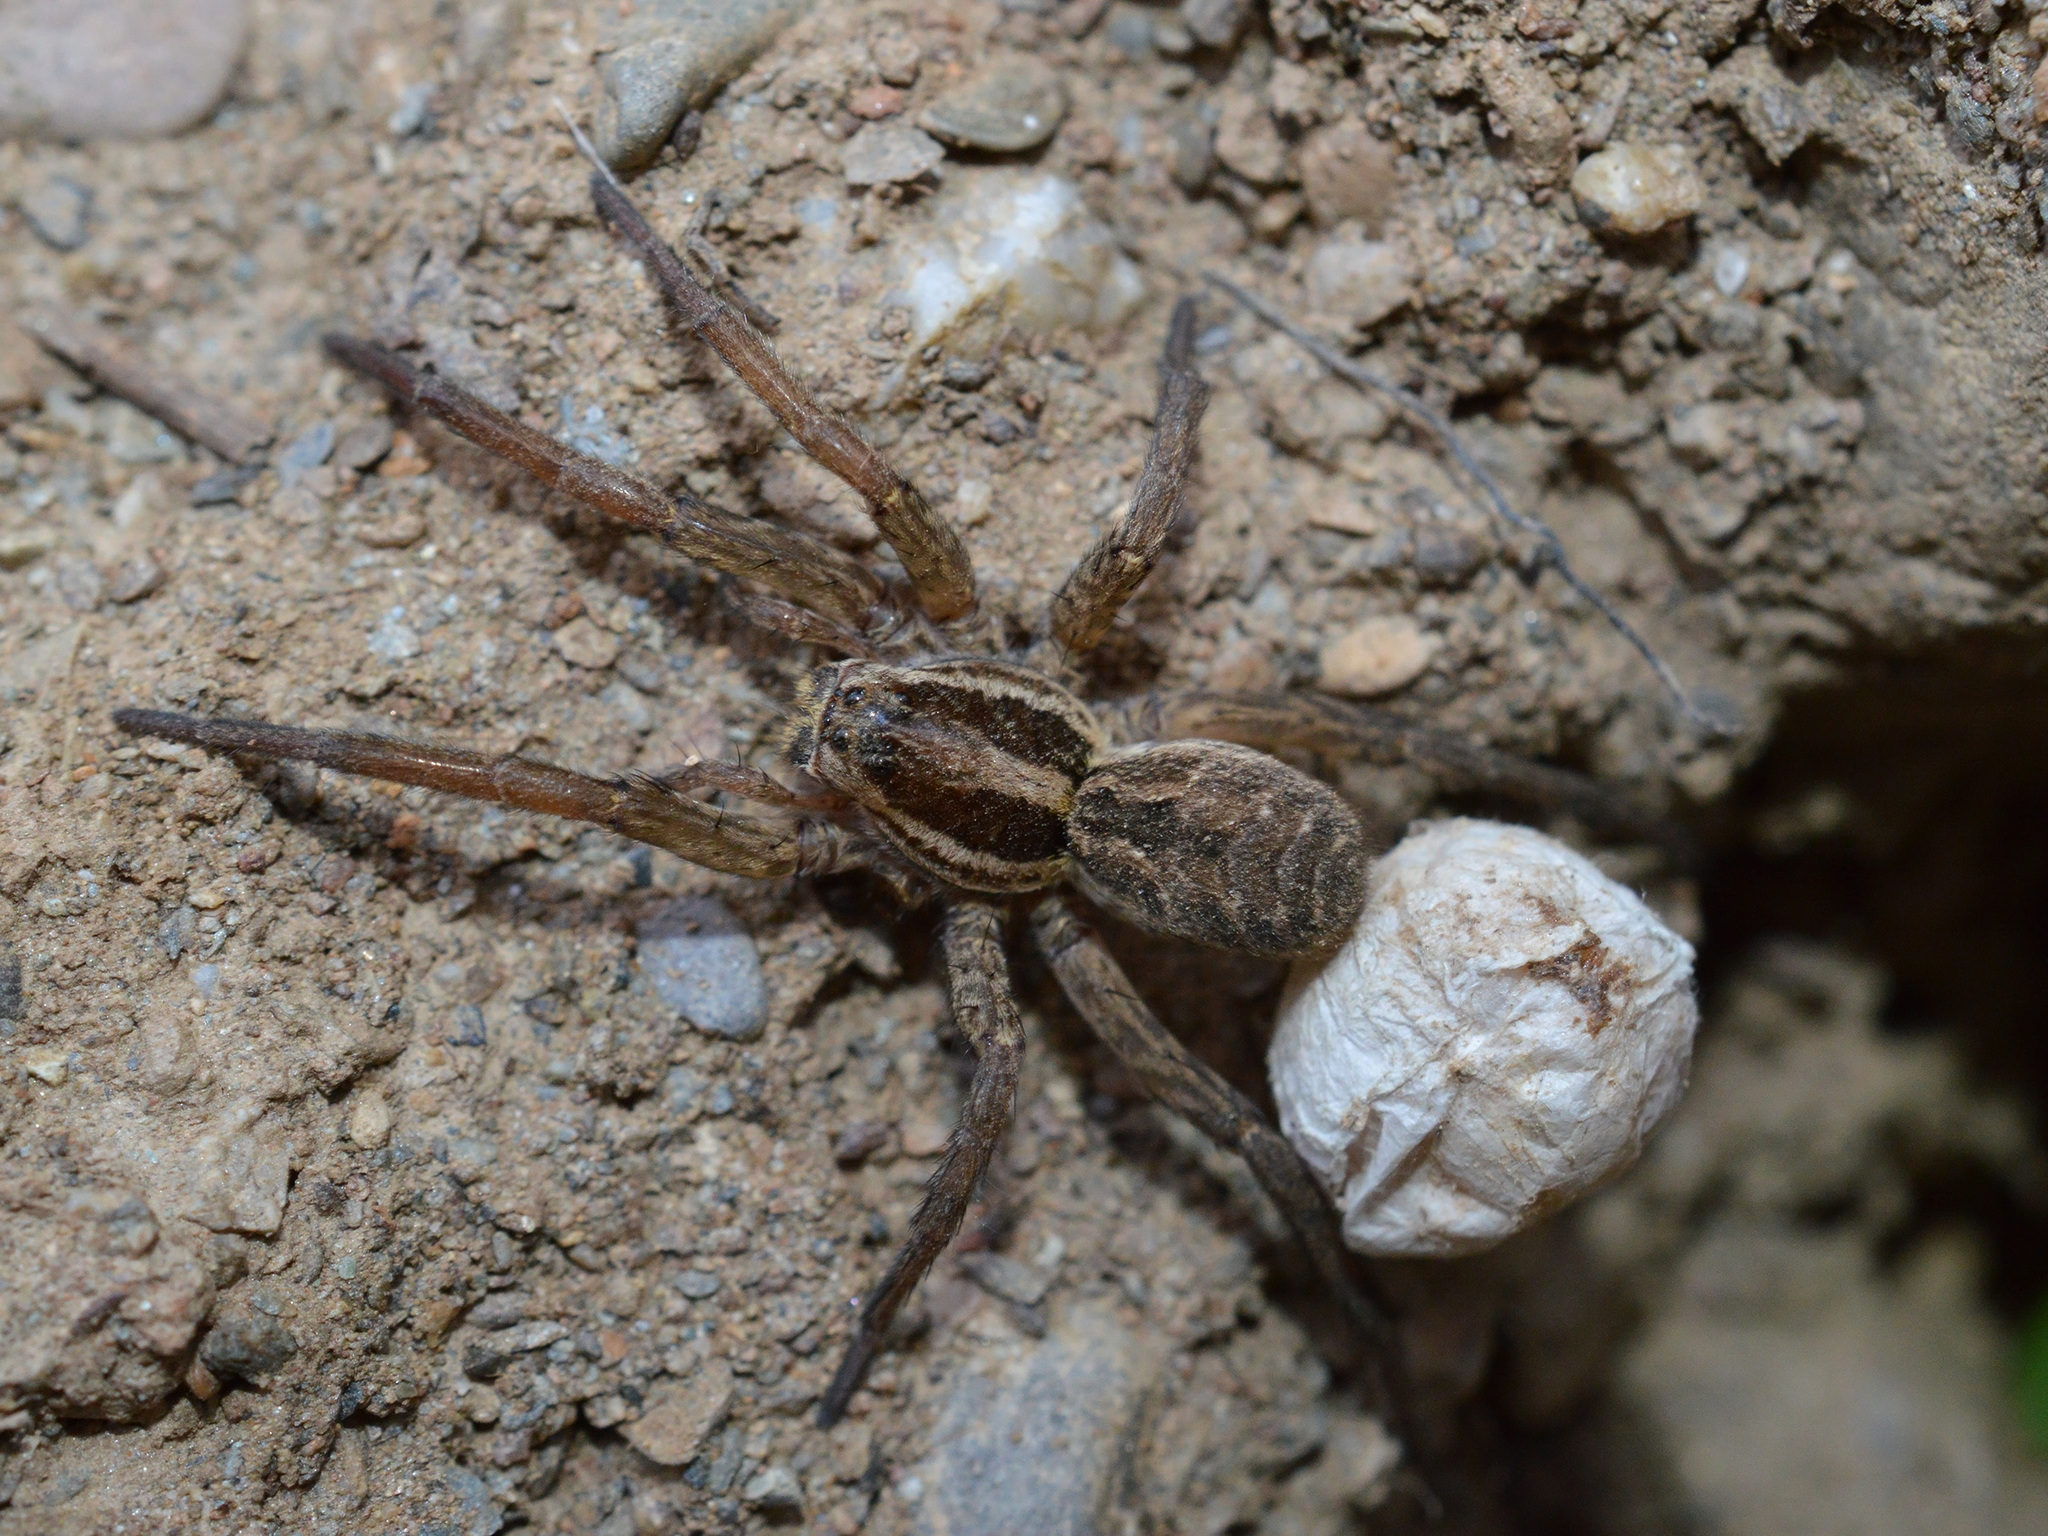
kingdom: Animalia
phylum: Arthropoda
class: Arachnida
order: Araneae
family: Lycosidae
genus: Hogna
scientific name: Hogna radiata
